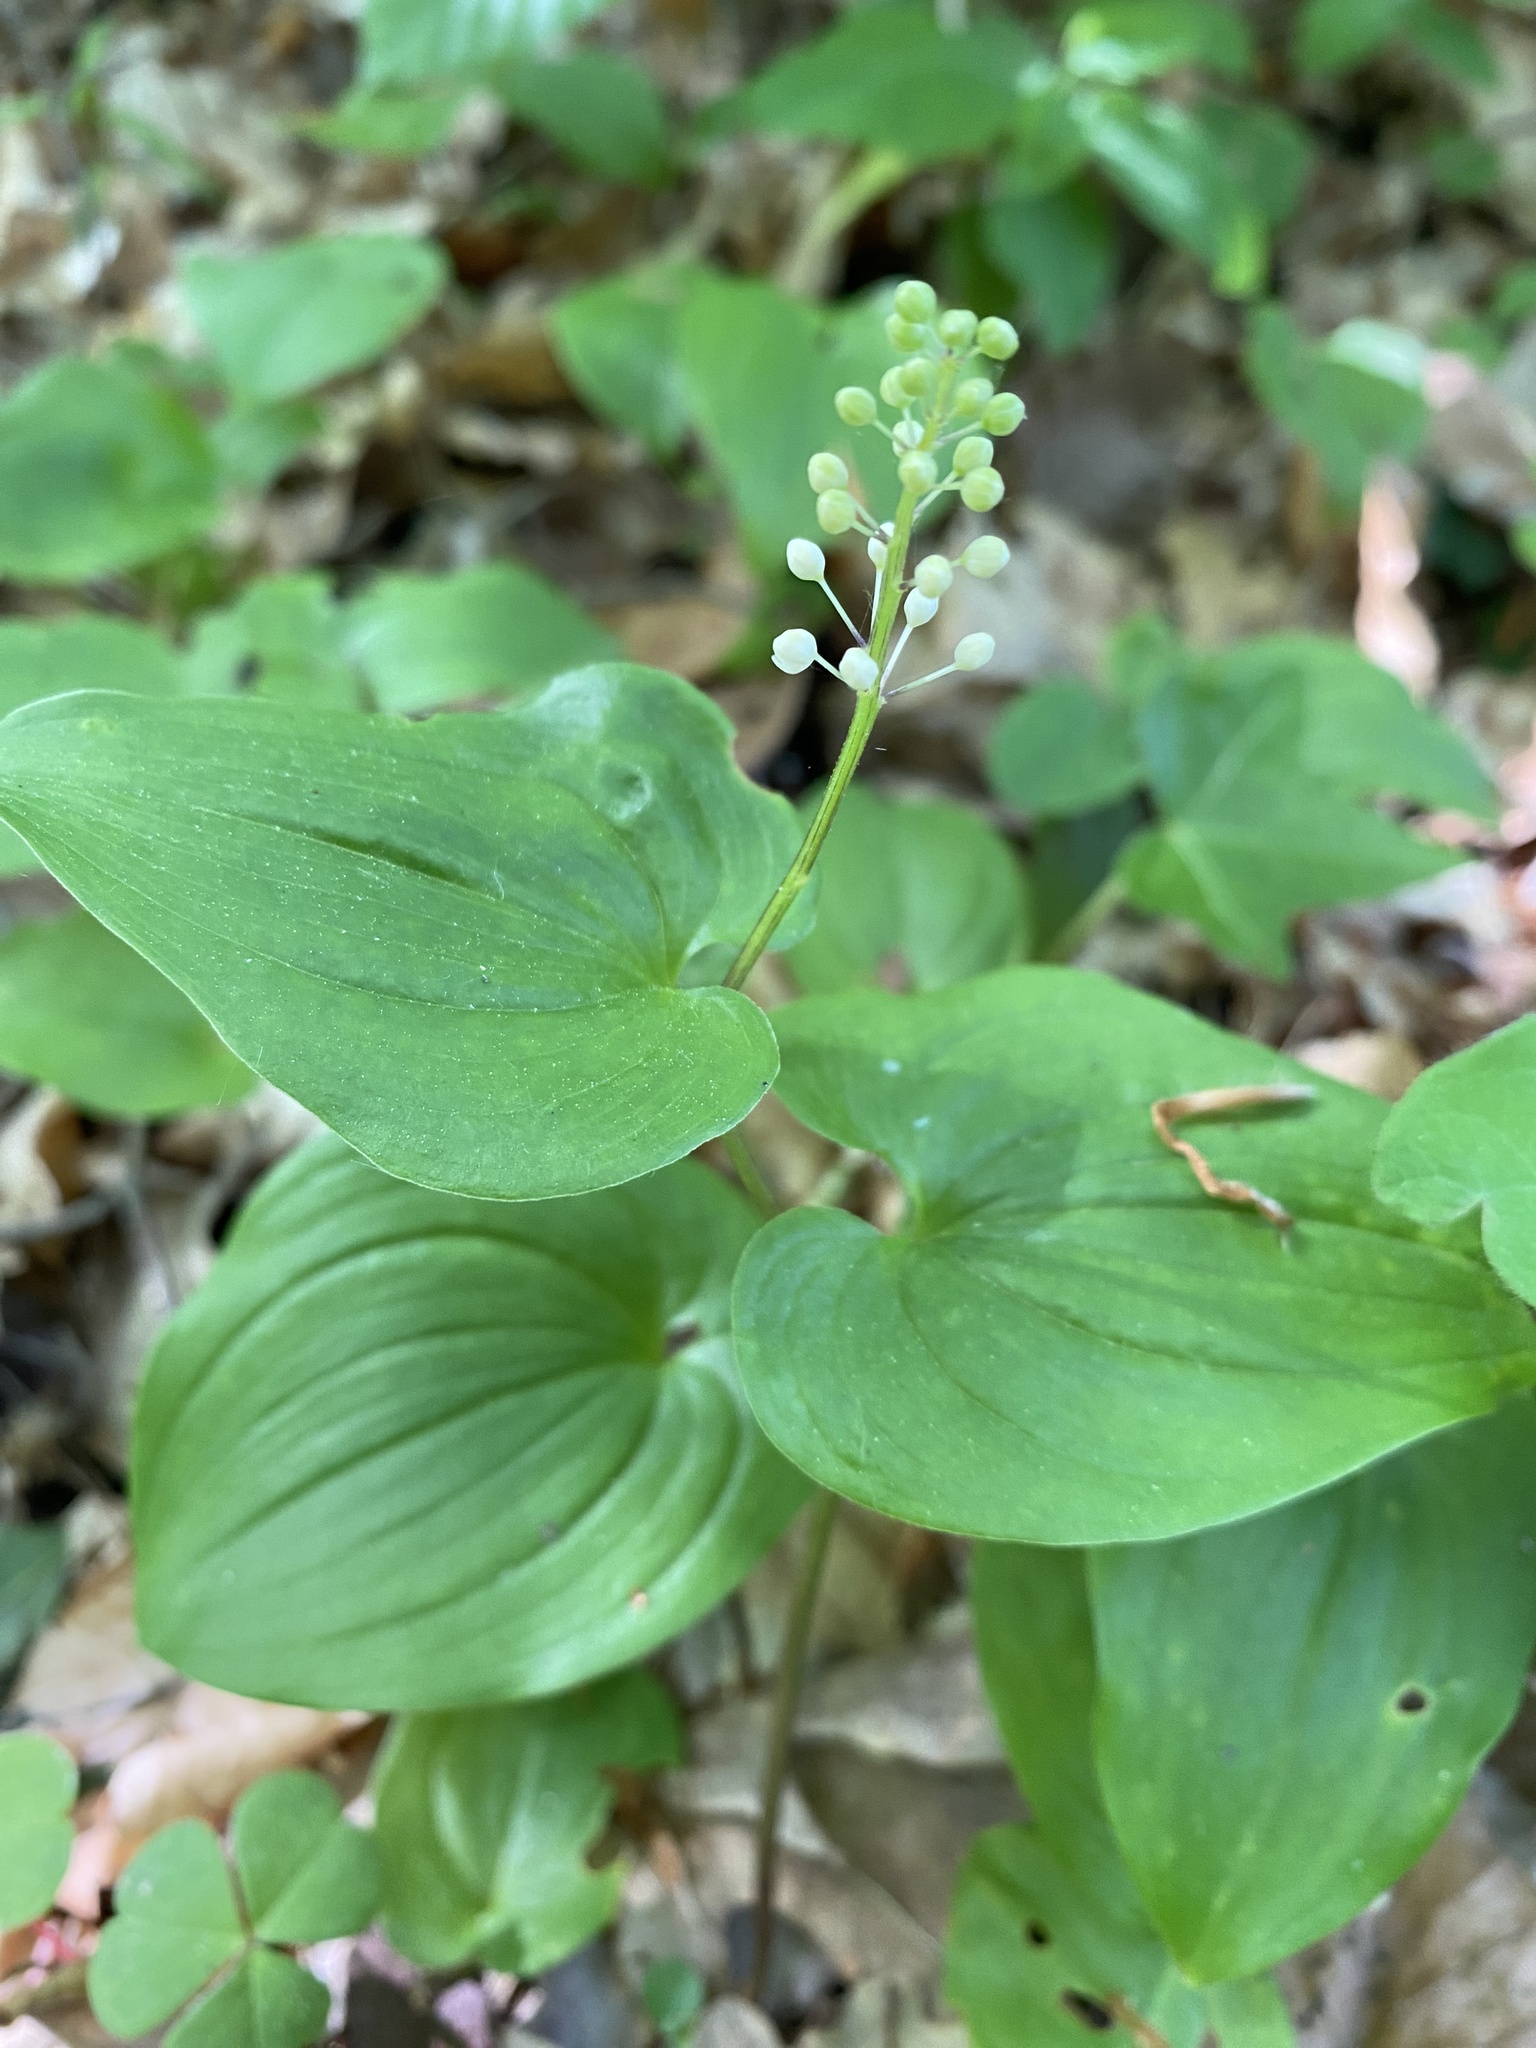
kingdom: Plantae
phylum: Tracheophyta
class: Liliopsida
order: Asparagales
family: Asparagaceae
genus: Maianthemum
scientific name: Maianthemum bifolium
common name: May lily
